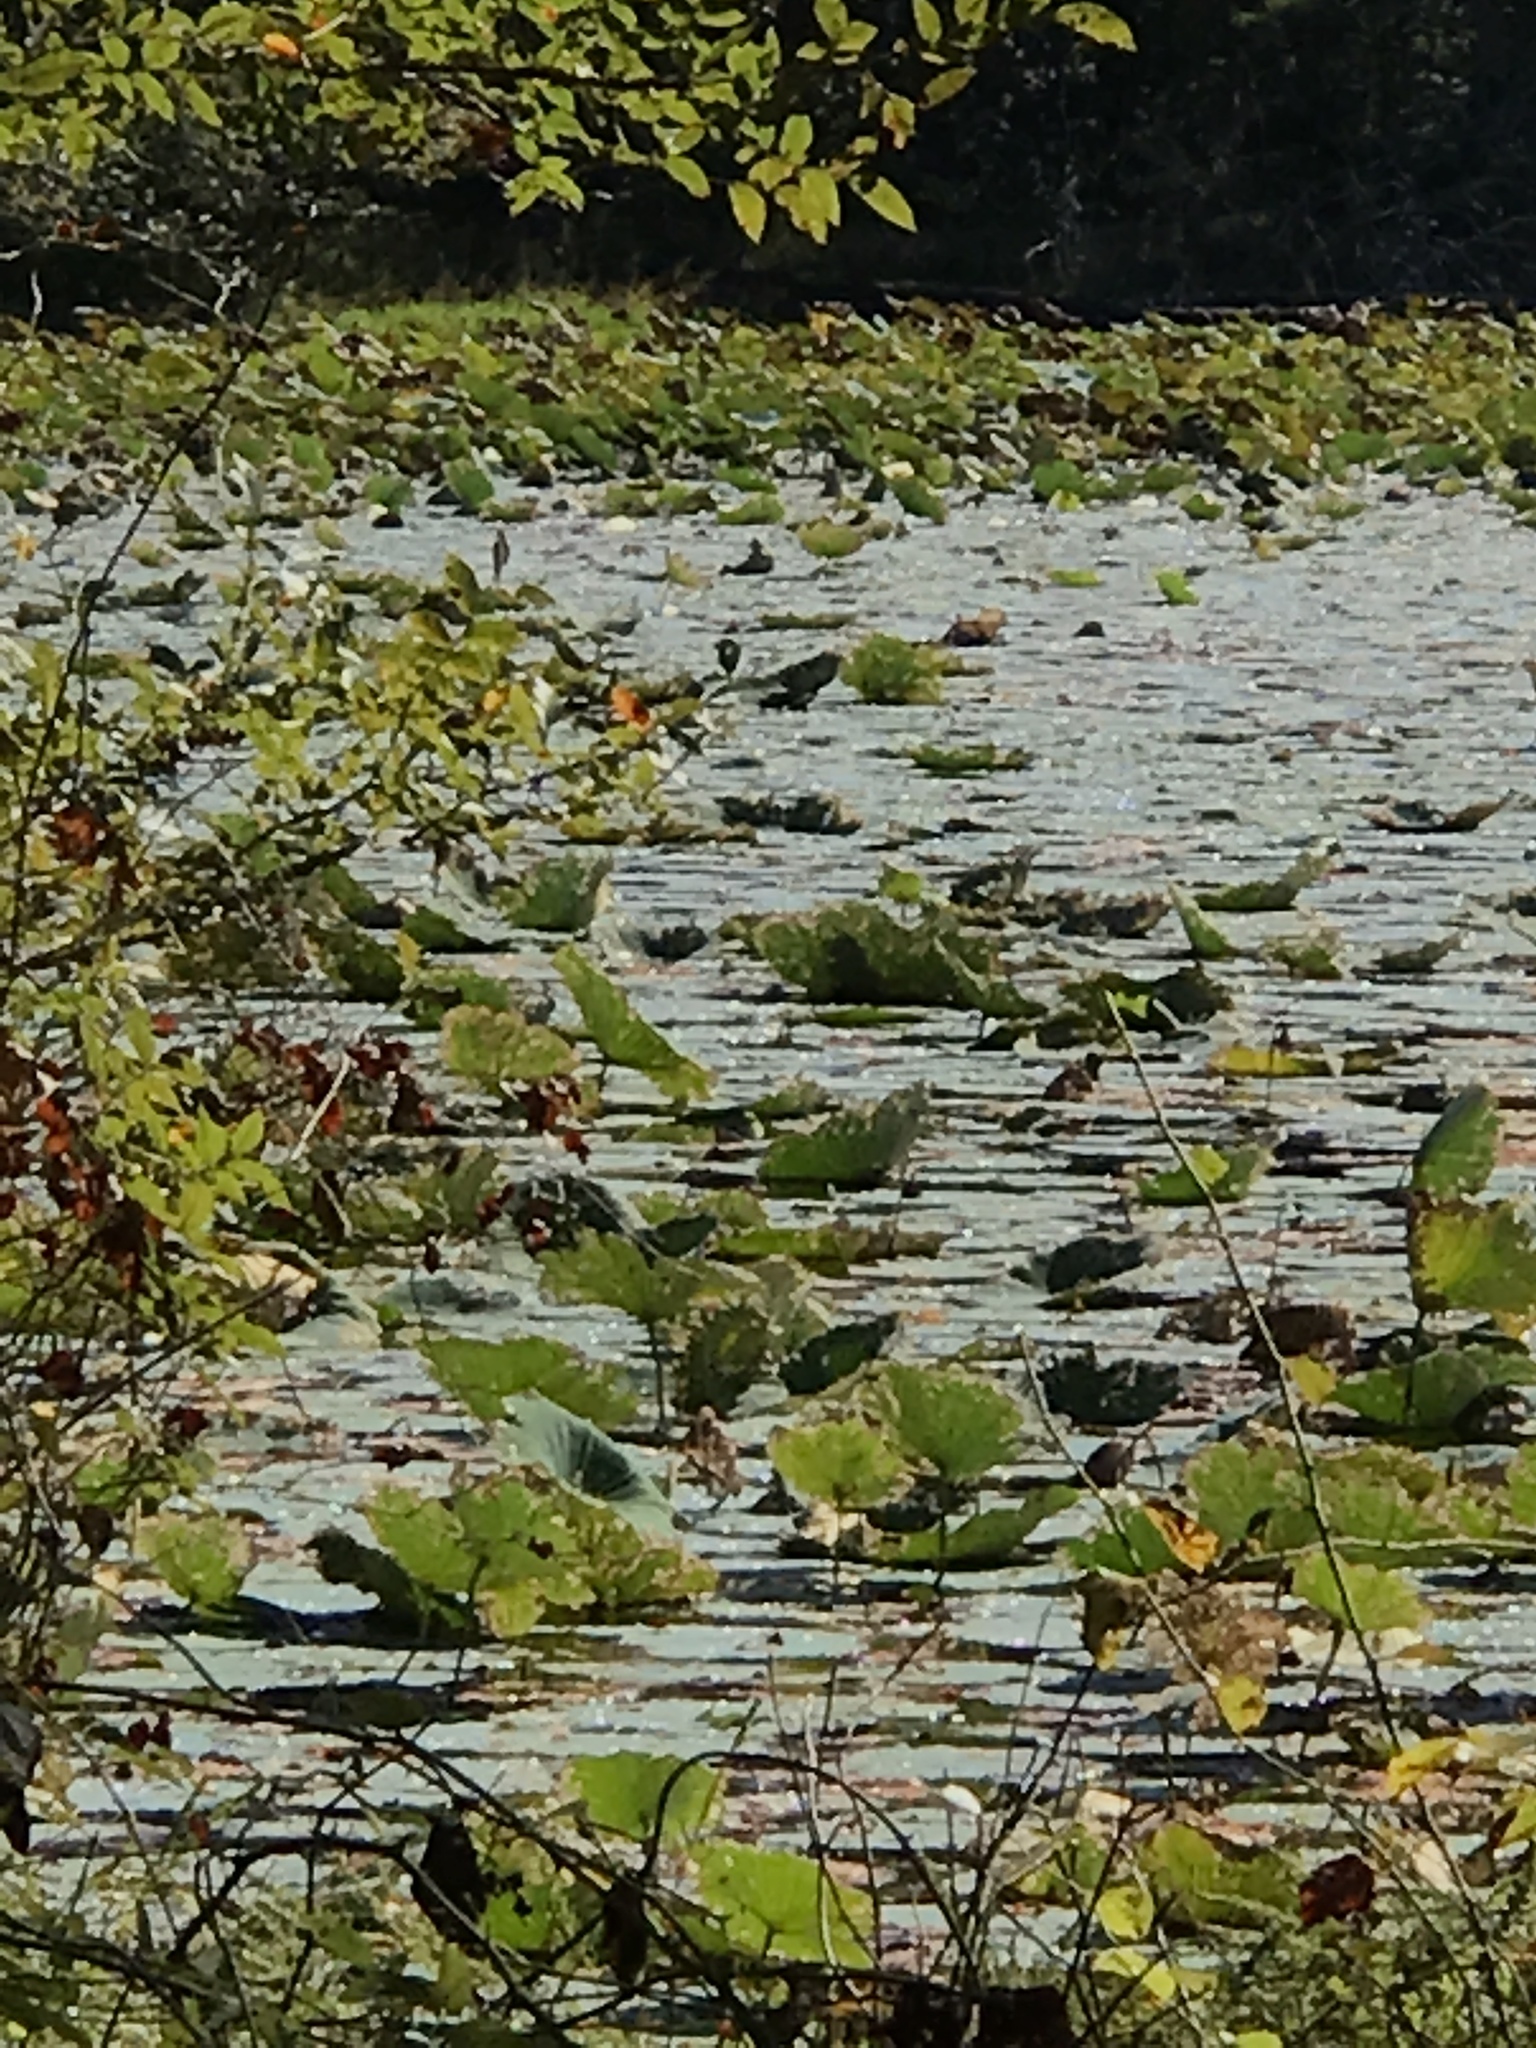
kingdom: Plantae
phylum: Tracheophyta
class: Magnoliopsida
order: Proteales
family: Nelumbonaceae
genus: Nelumbo
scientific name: Nelumbo lutea
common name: American lotus
